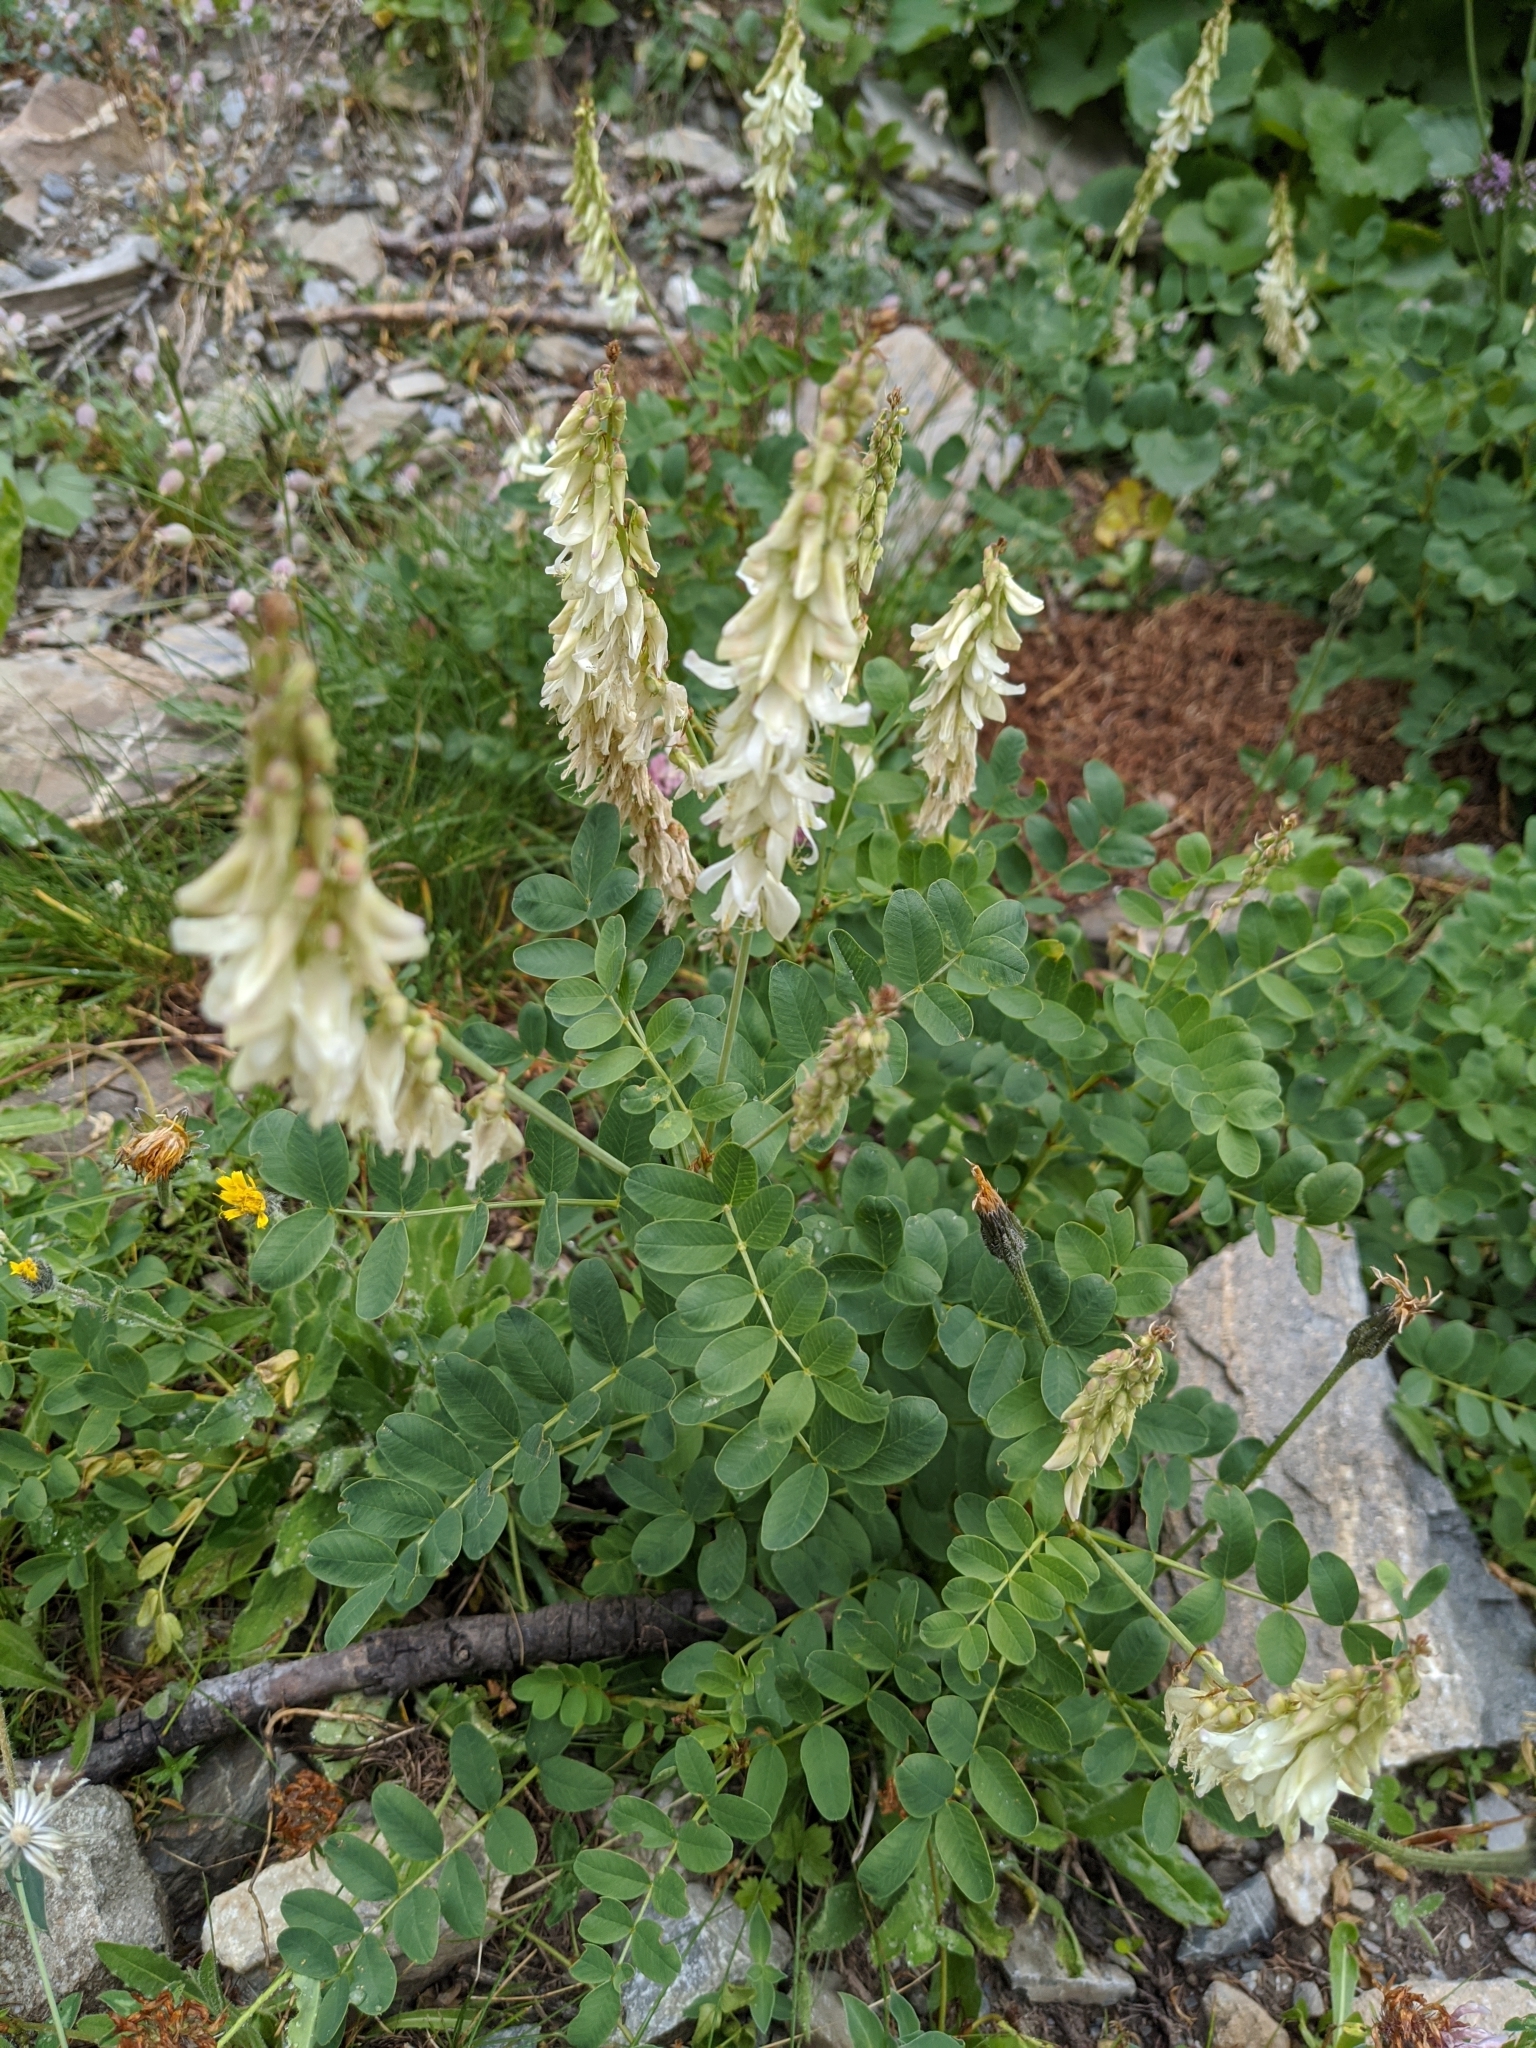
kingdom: Plantae
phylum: Tracheophyta
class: Magnoliopsida
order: Fabales
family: Fabaceae
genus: Hedysarum
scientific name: Hedysarum hedysaroides
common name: Alpine french-honeysuckle
